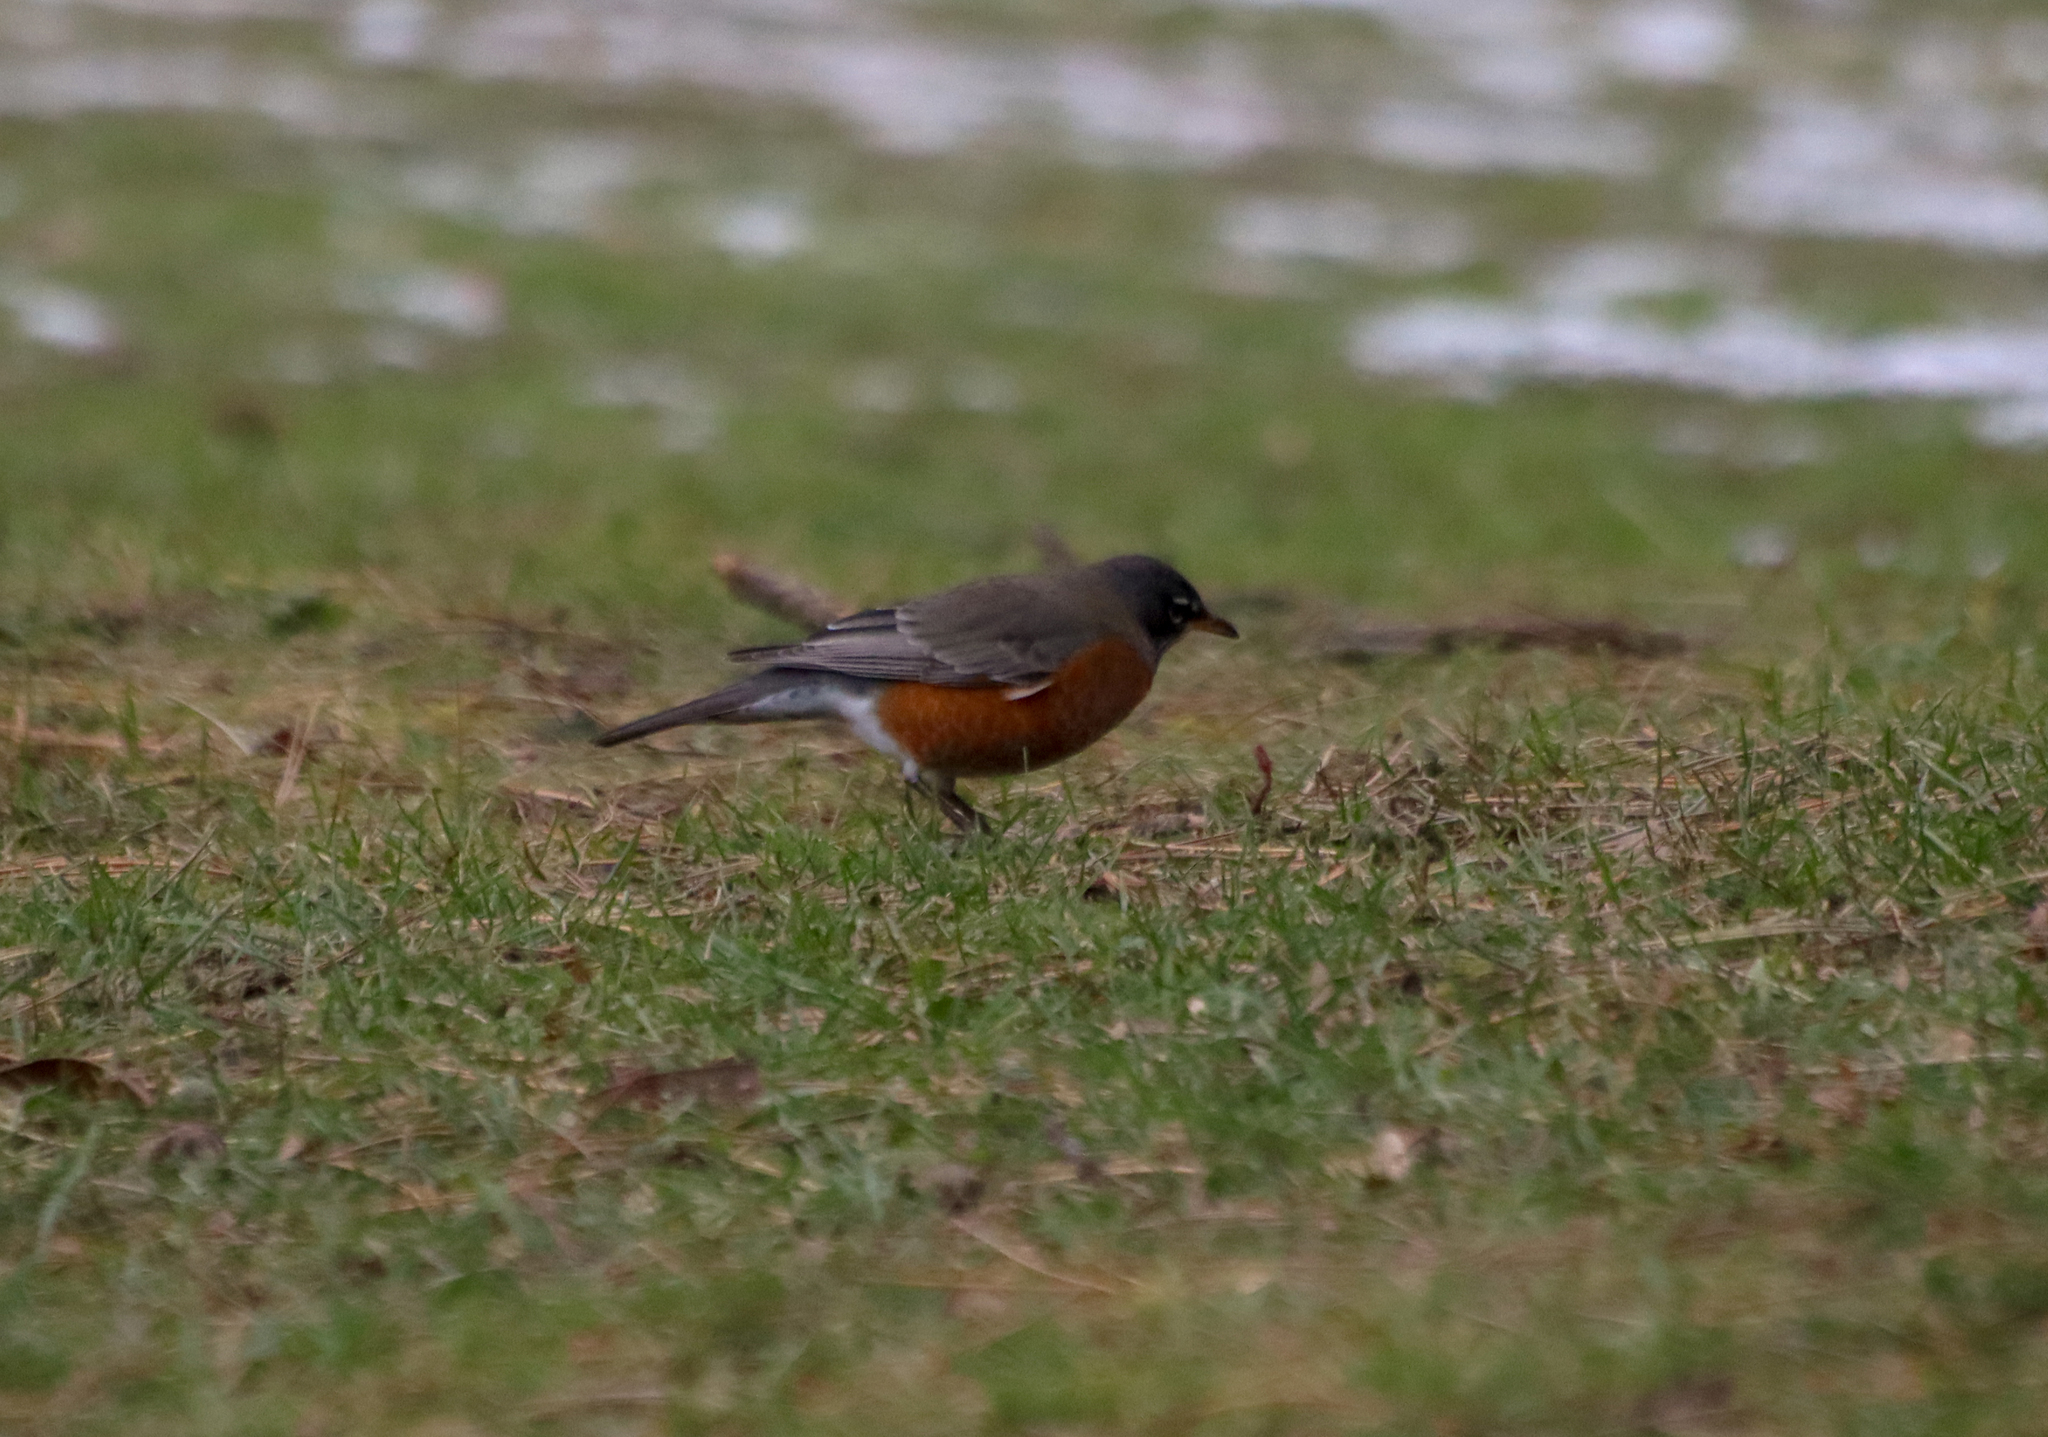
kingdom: Animalia
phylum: Chordata
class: Aves
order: Passeriformes
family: Turdidae
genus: Turdus
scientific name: Turdus migratorius
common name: American robin
